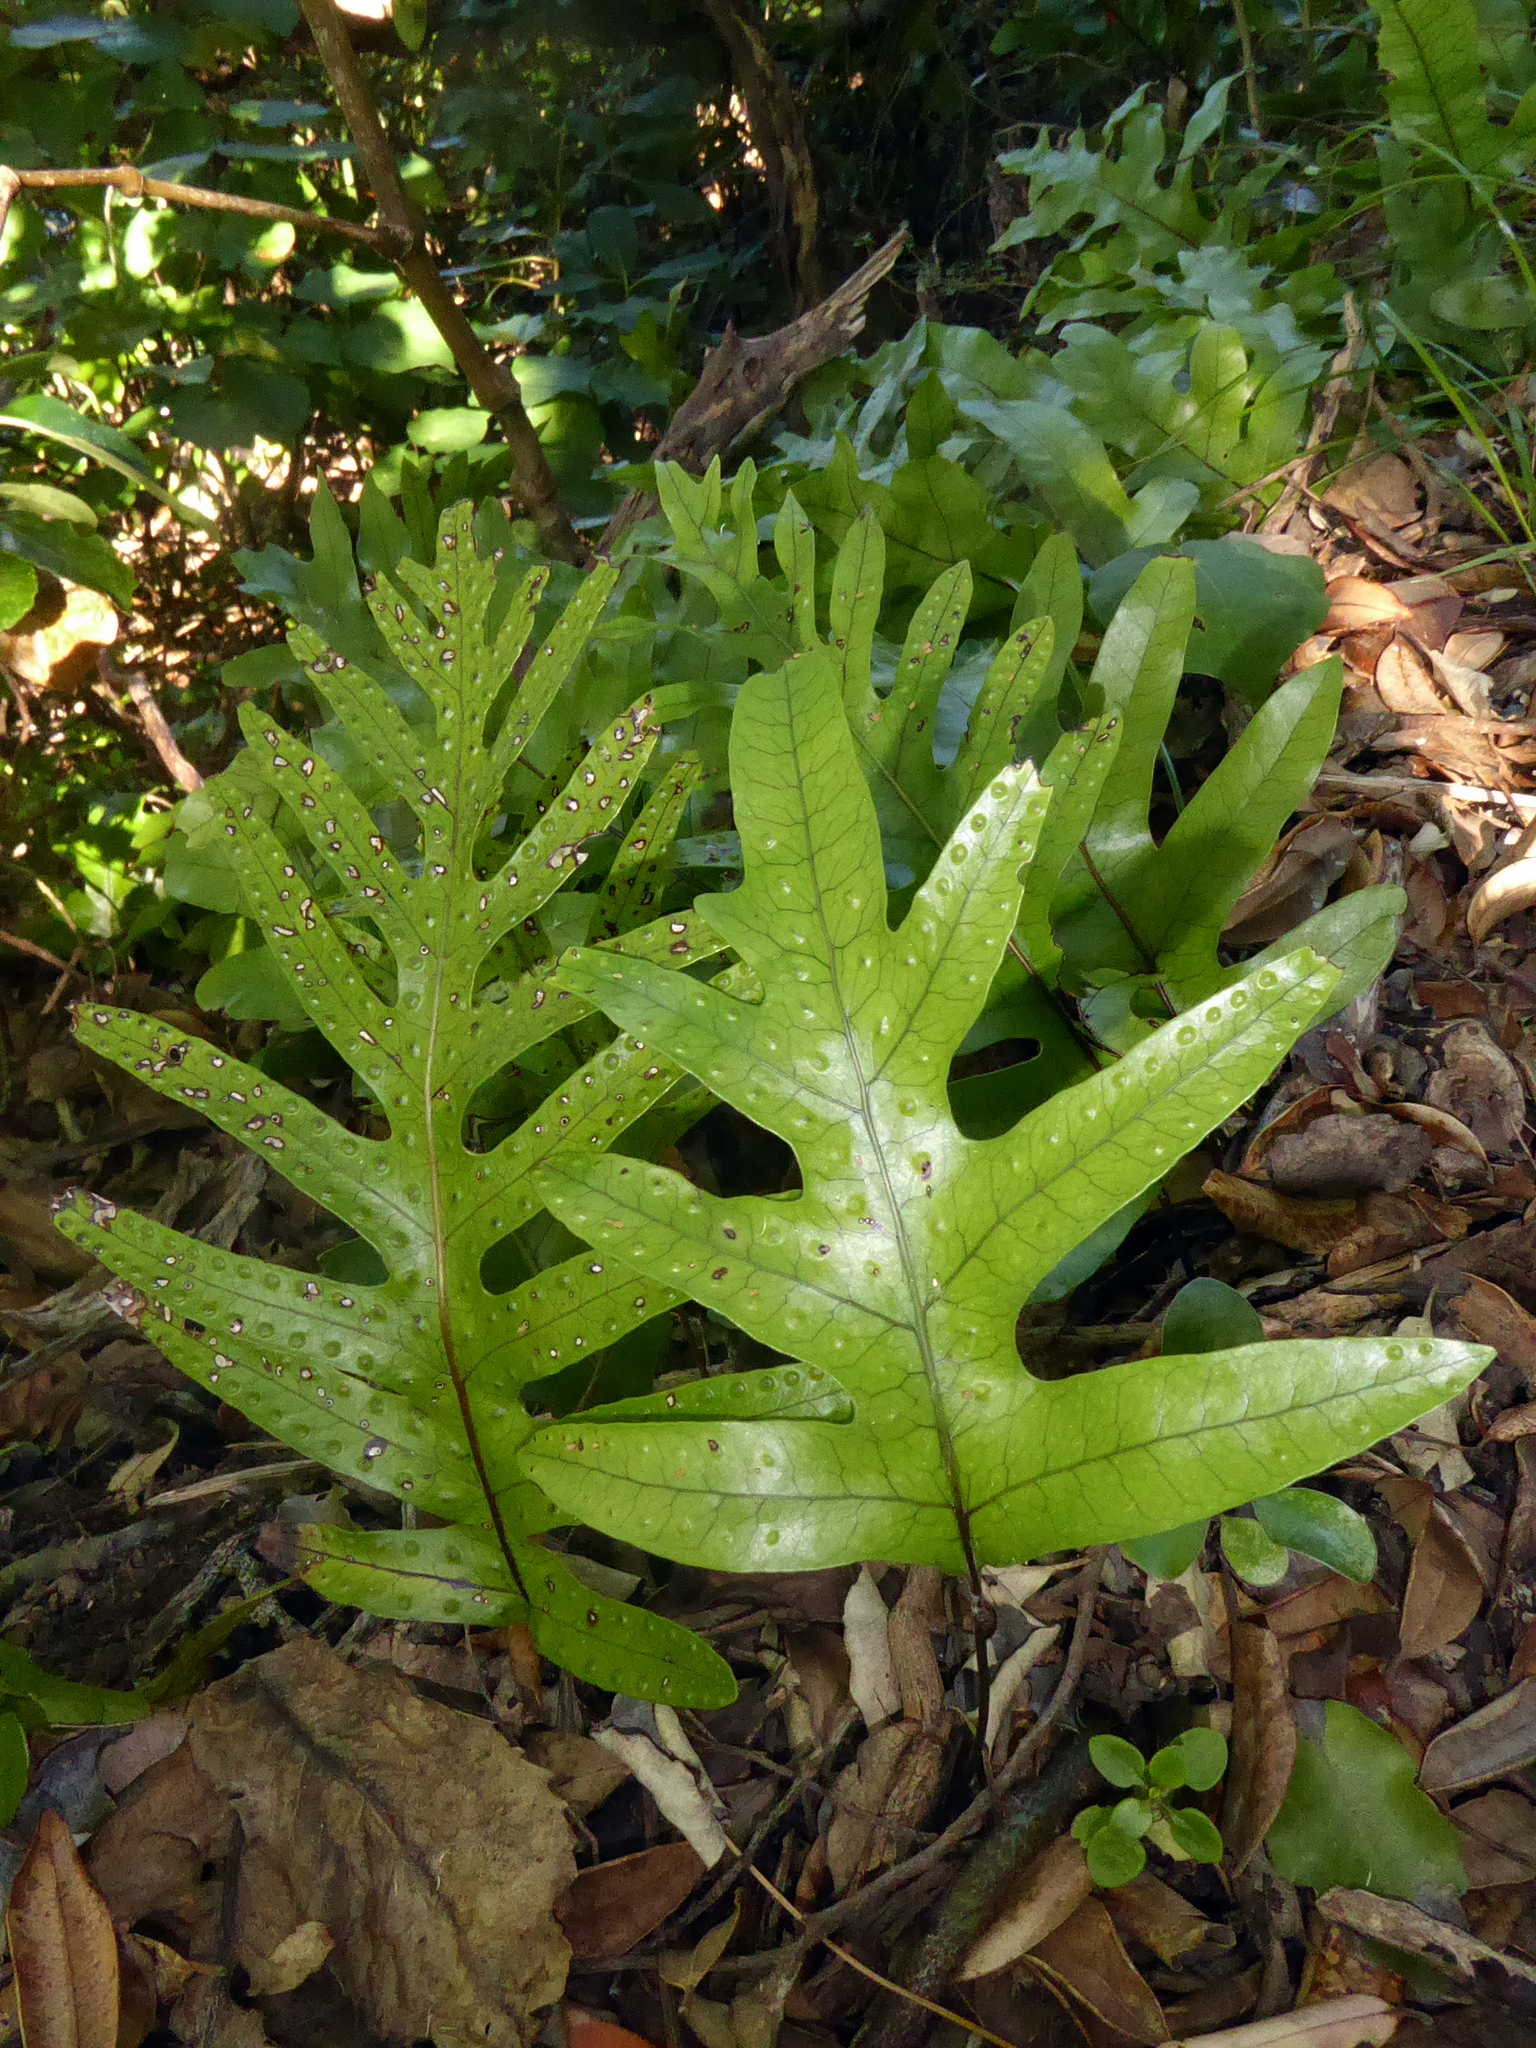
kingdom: Plantae
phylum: Tracheophyta
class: Polypodiopsida
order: Polypodiales
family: Polypodiaceae
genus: Lecanopteris
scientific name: Lecanopteris pustulata
